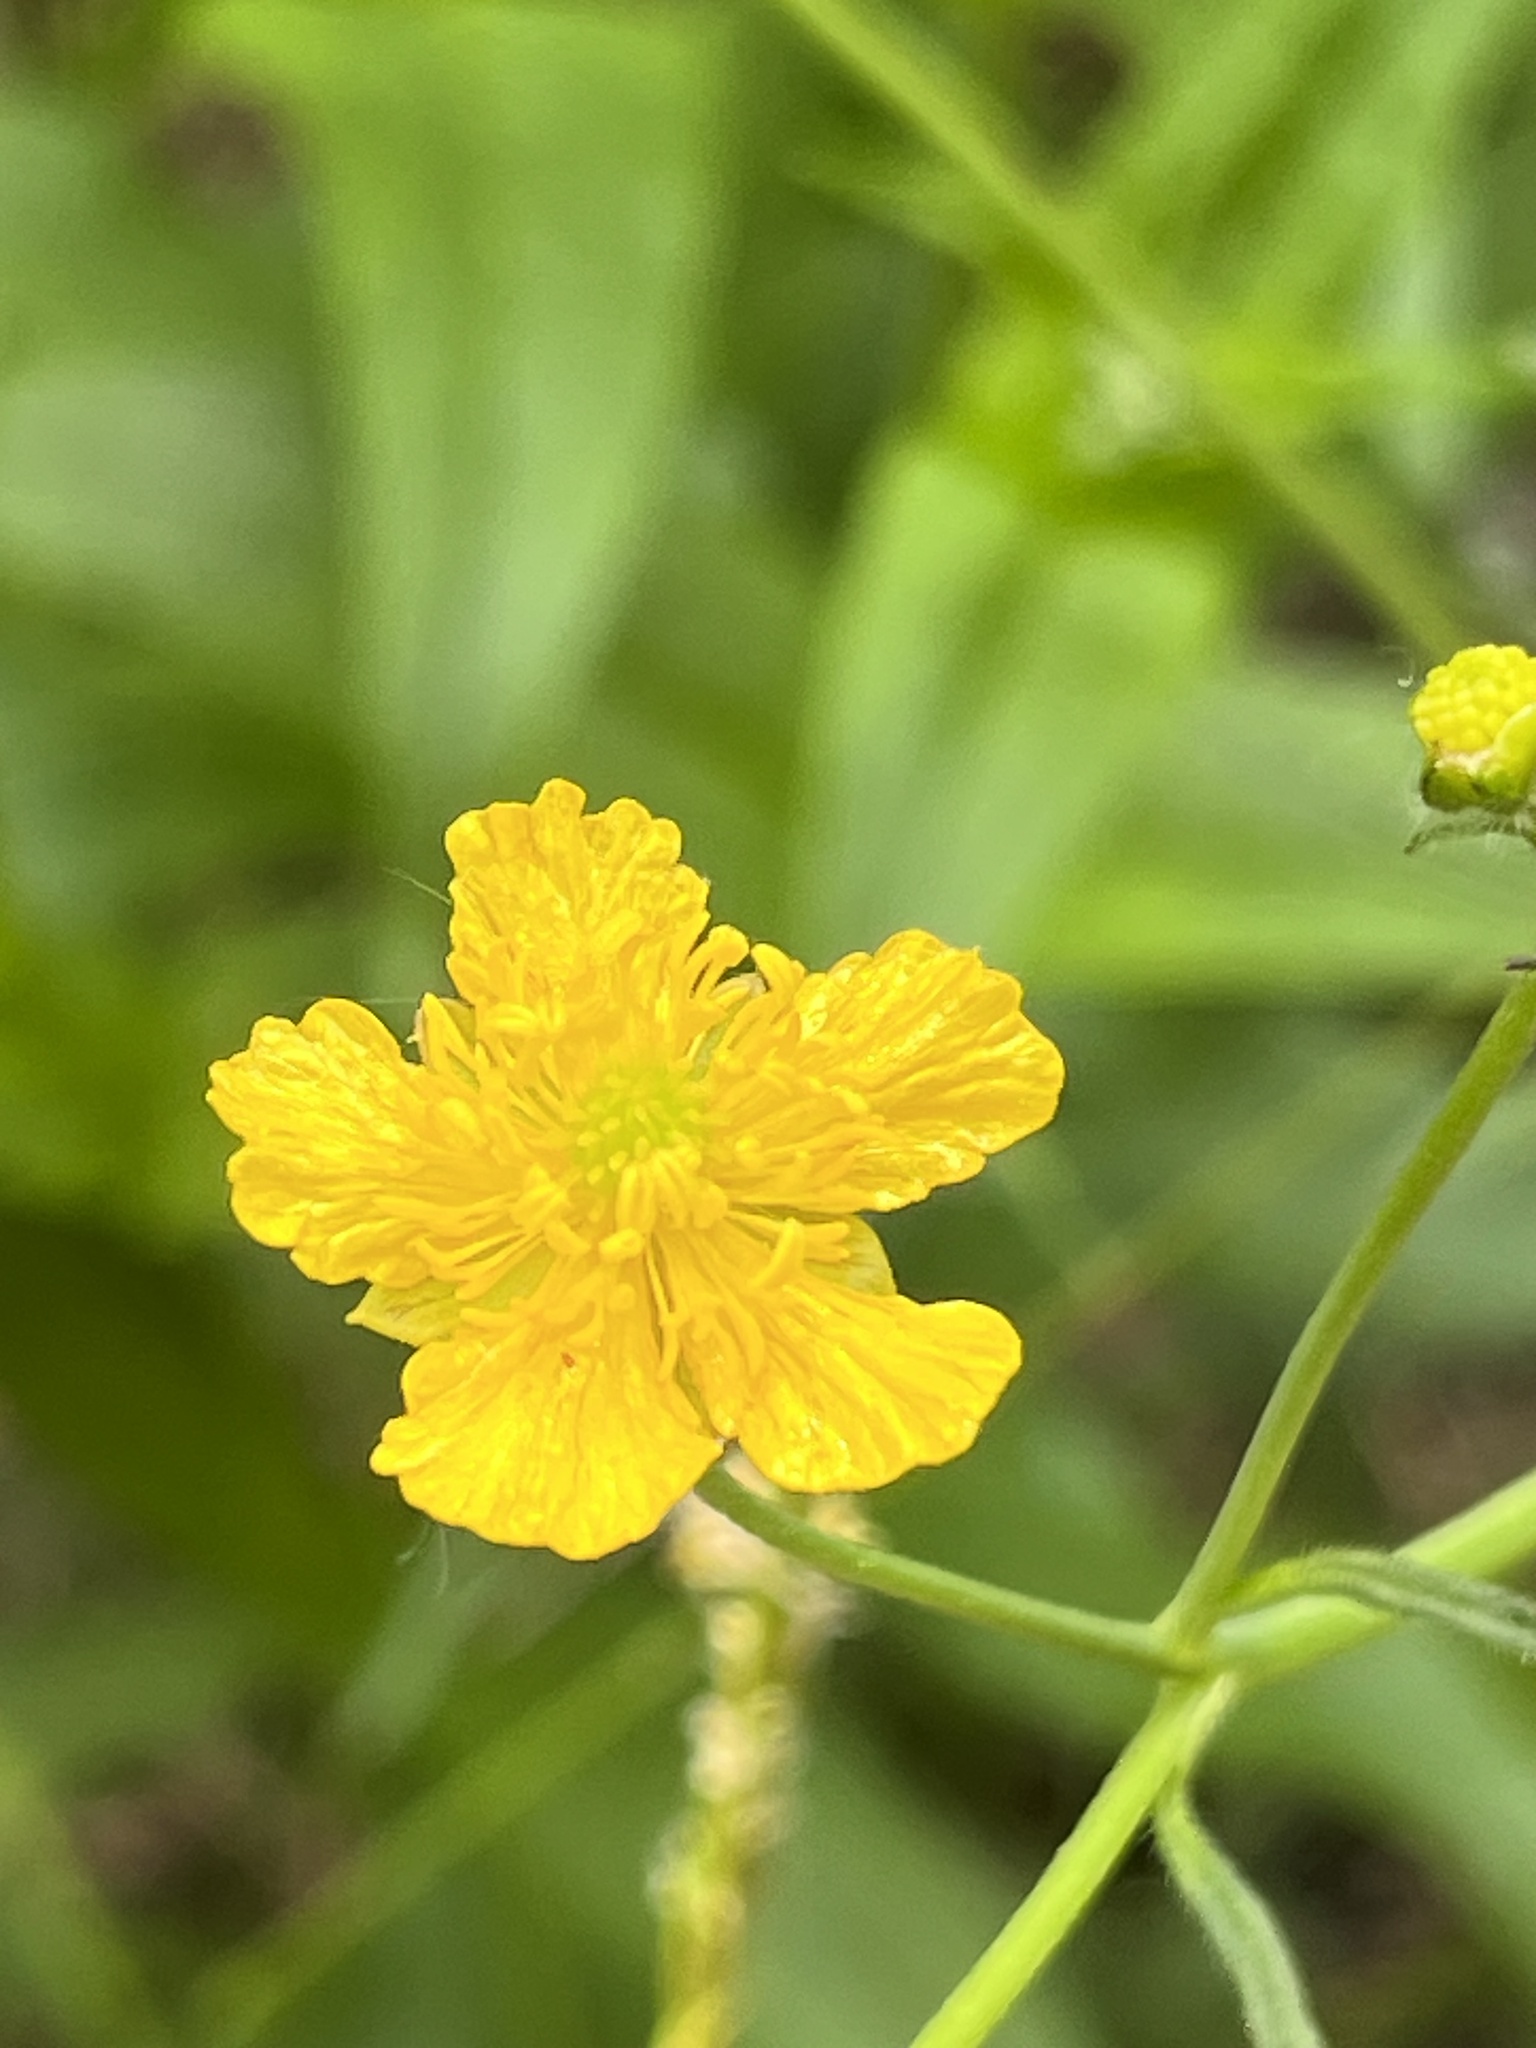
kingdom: Plantae
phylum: Tracheophyta
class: Magnoliopsida
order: Ranunculales
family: Ranunculaceae
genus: Ranunculus
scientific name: Ranunculus acris
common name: Meadow buttercup
